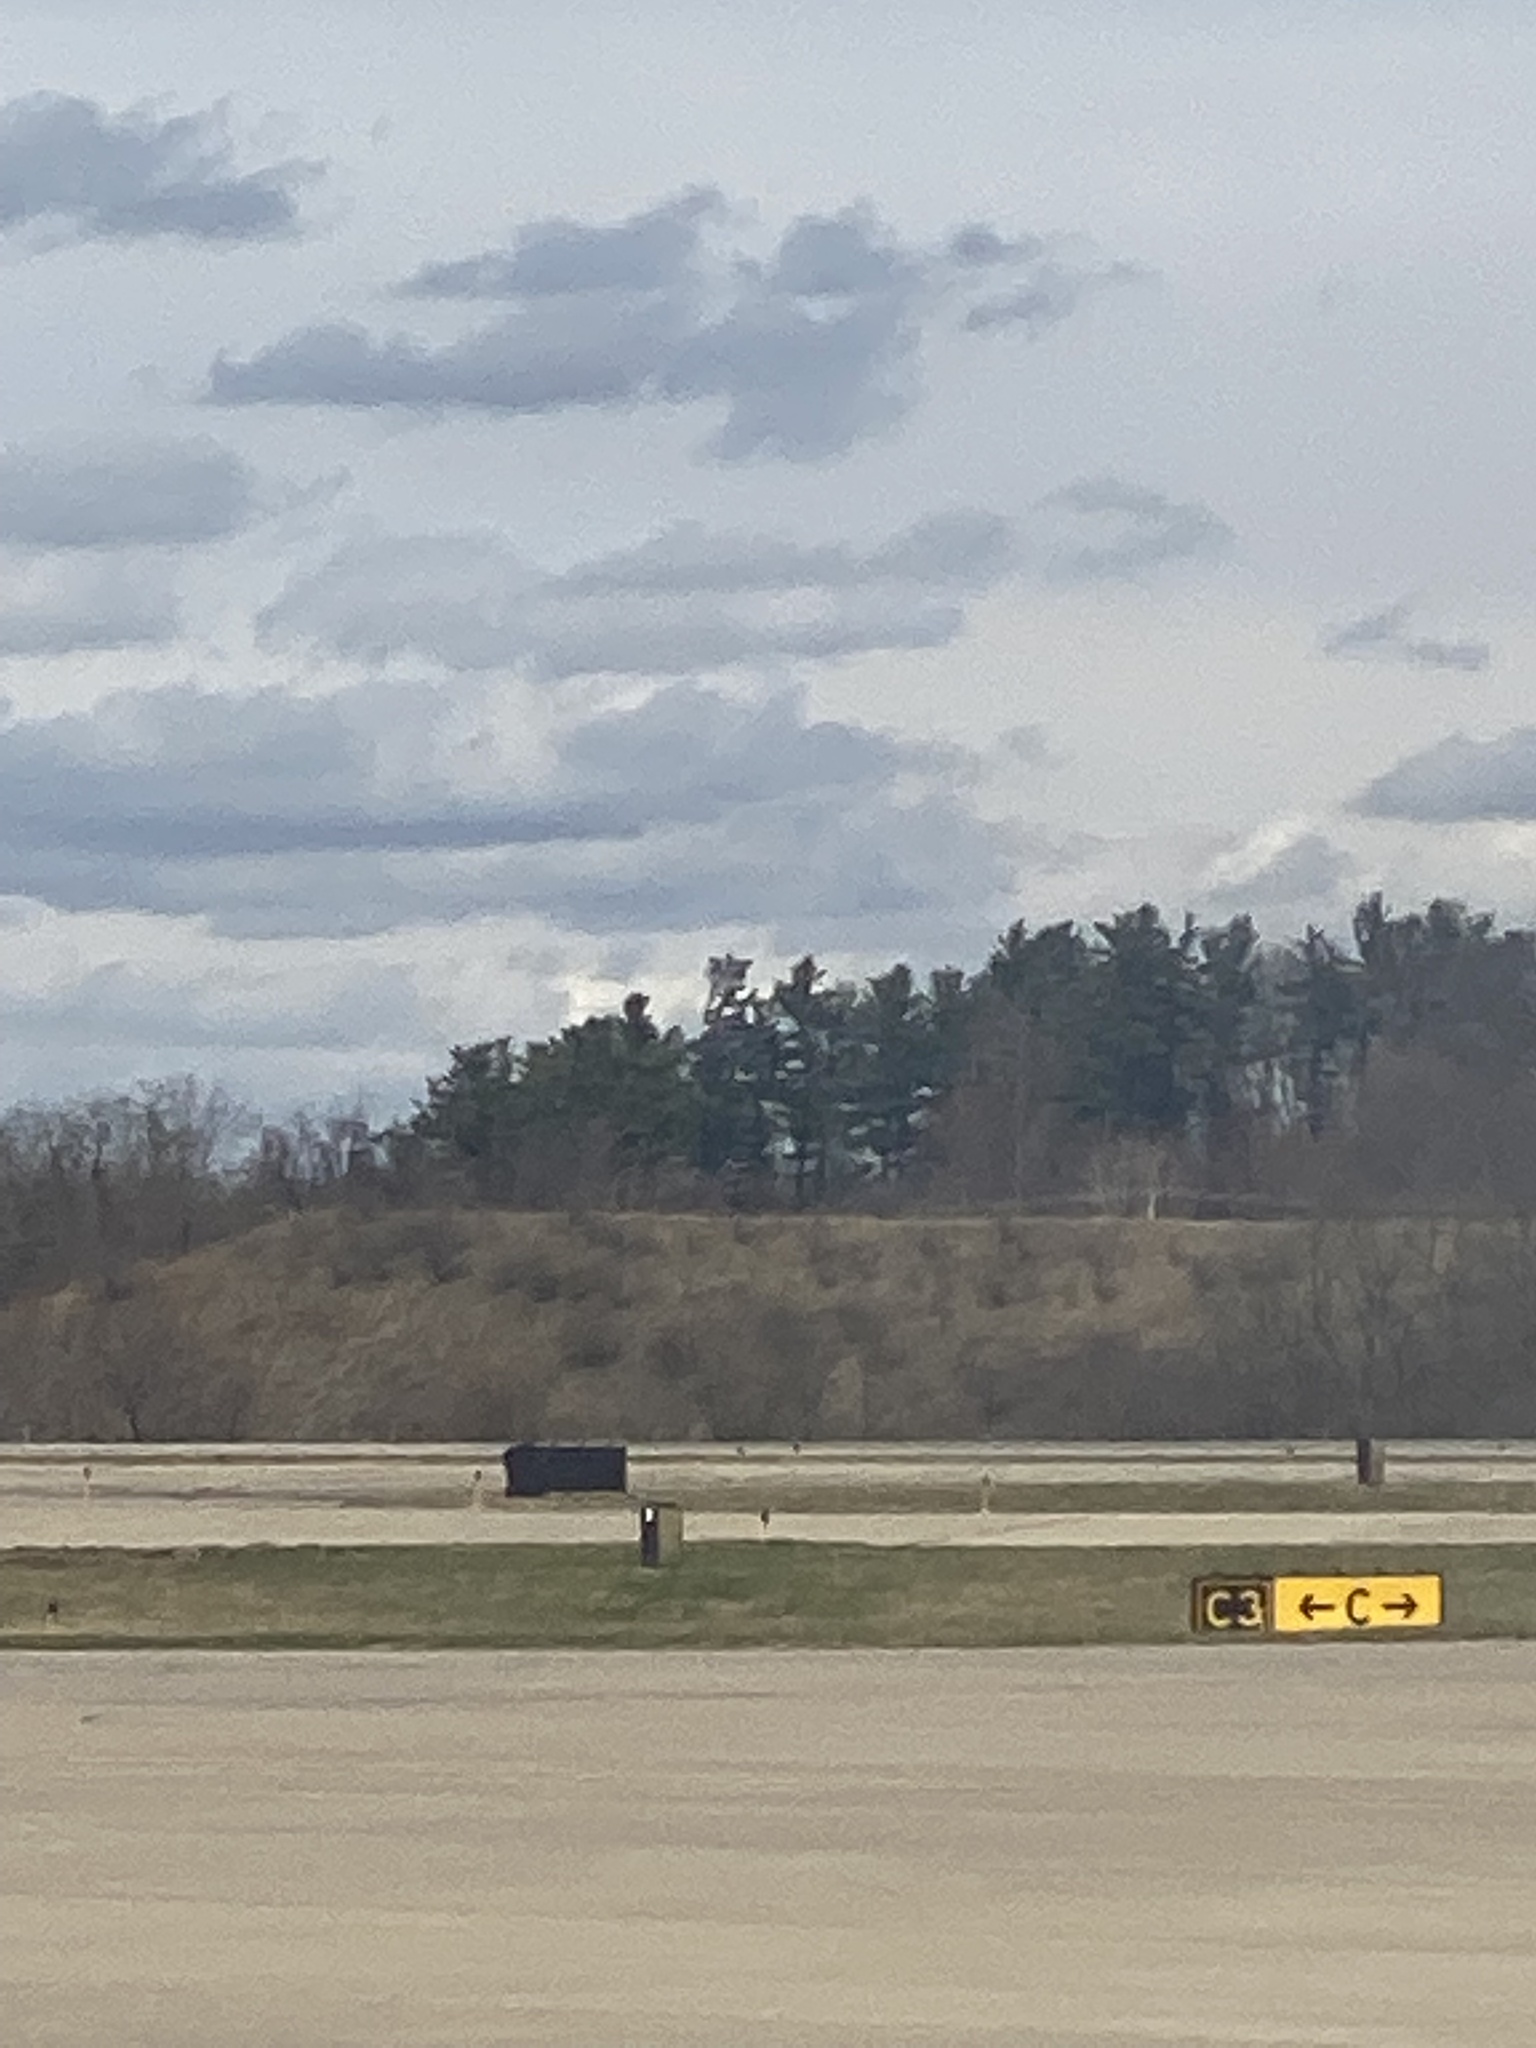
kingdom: Plantae
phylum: Tracheophyta
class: Pinopsida
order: Pinales
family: Pinaceae
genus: Pinus
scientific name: Pinus strobus
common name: Weymouth pine
